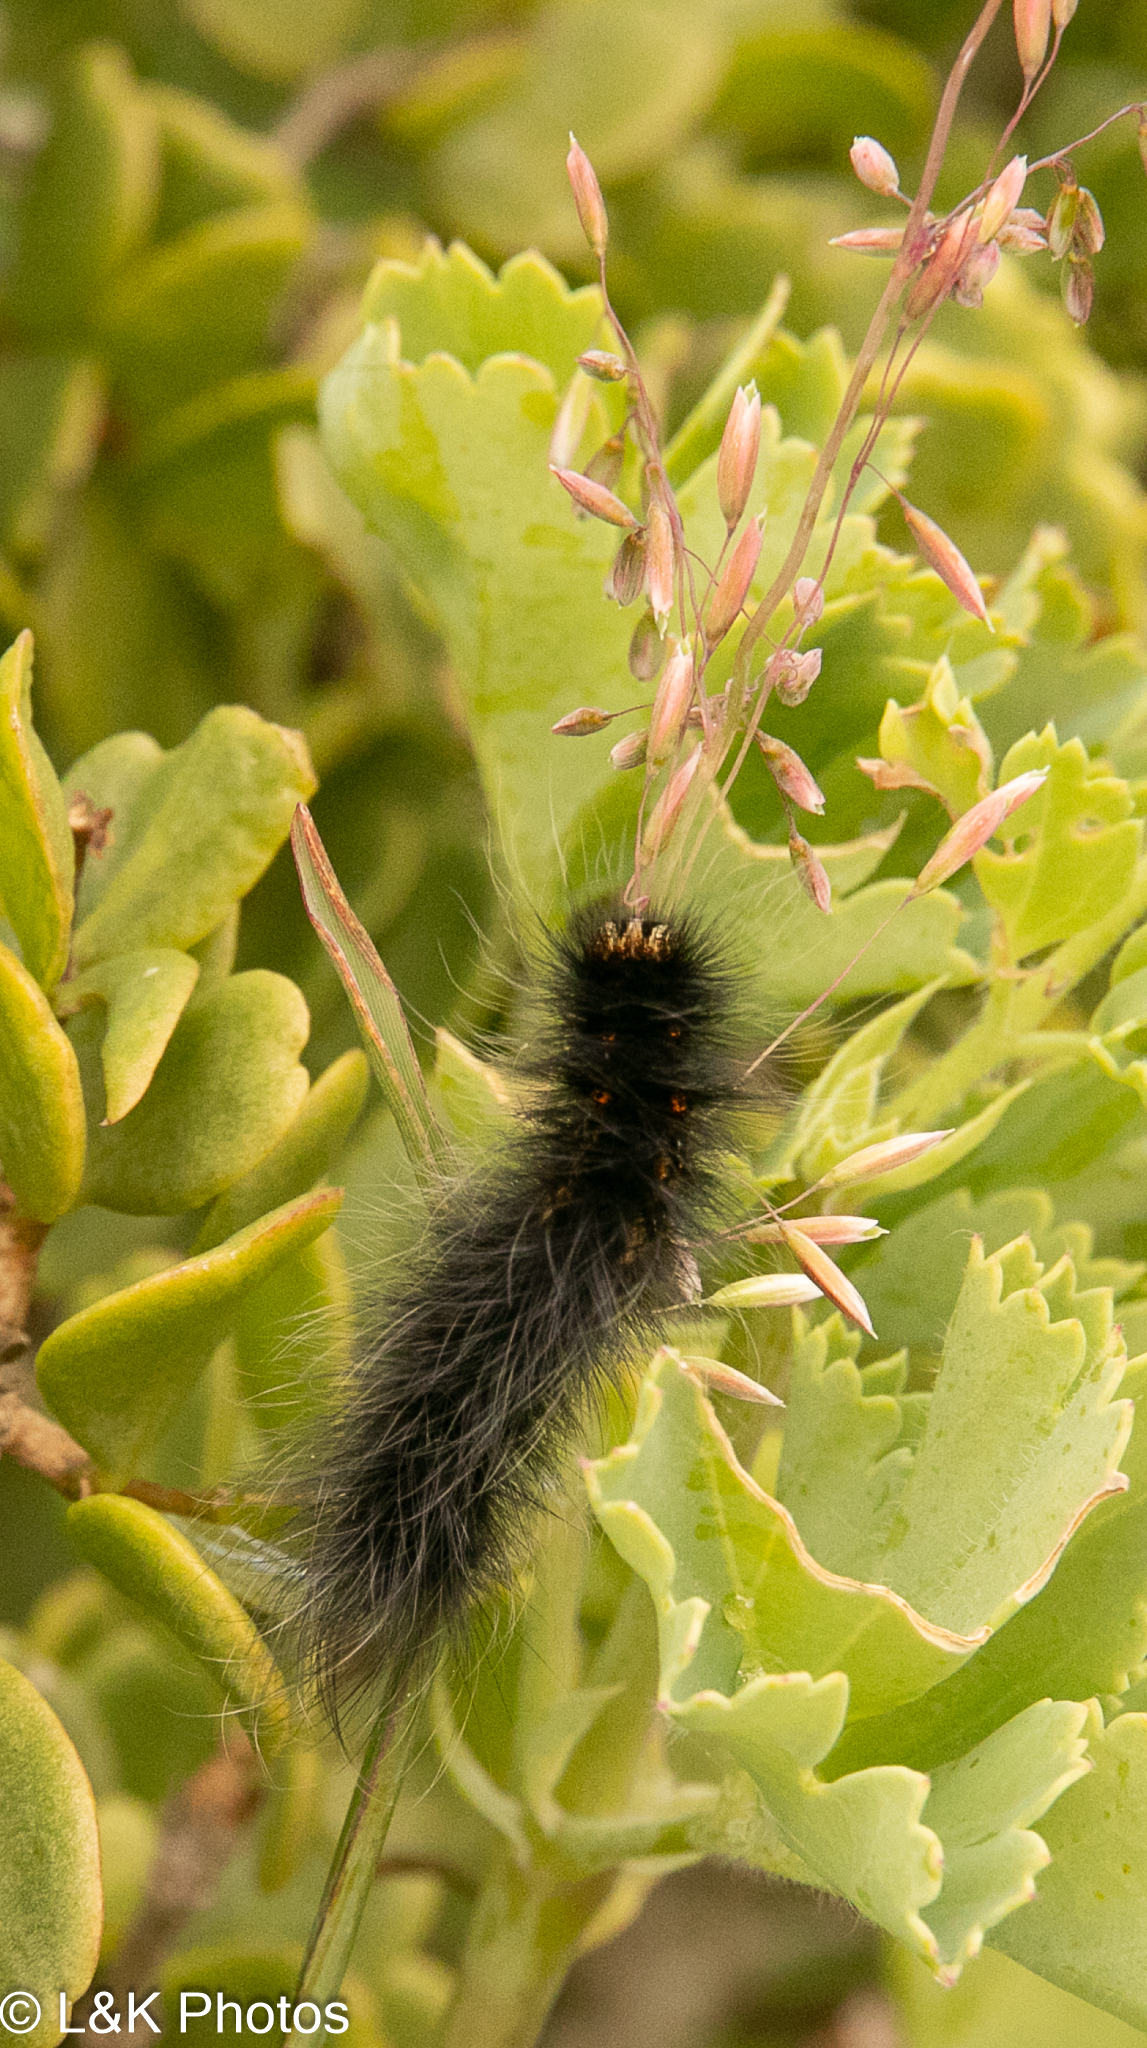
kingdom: Animalia
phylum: Arthropoda
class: Insecta
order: Lepidoptera
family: Lasiocampidae
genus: Mesocelis
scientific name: Mesocelis monticola
